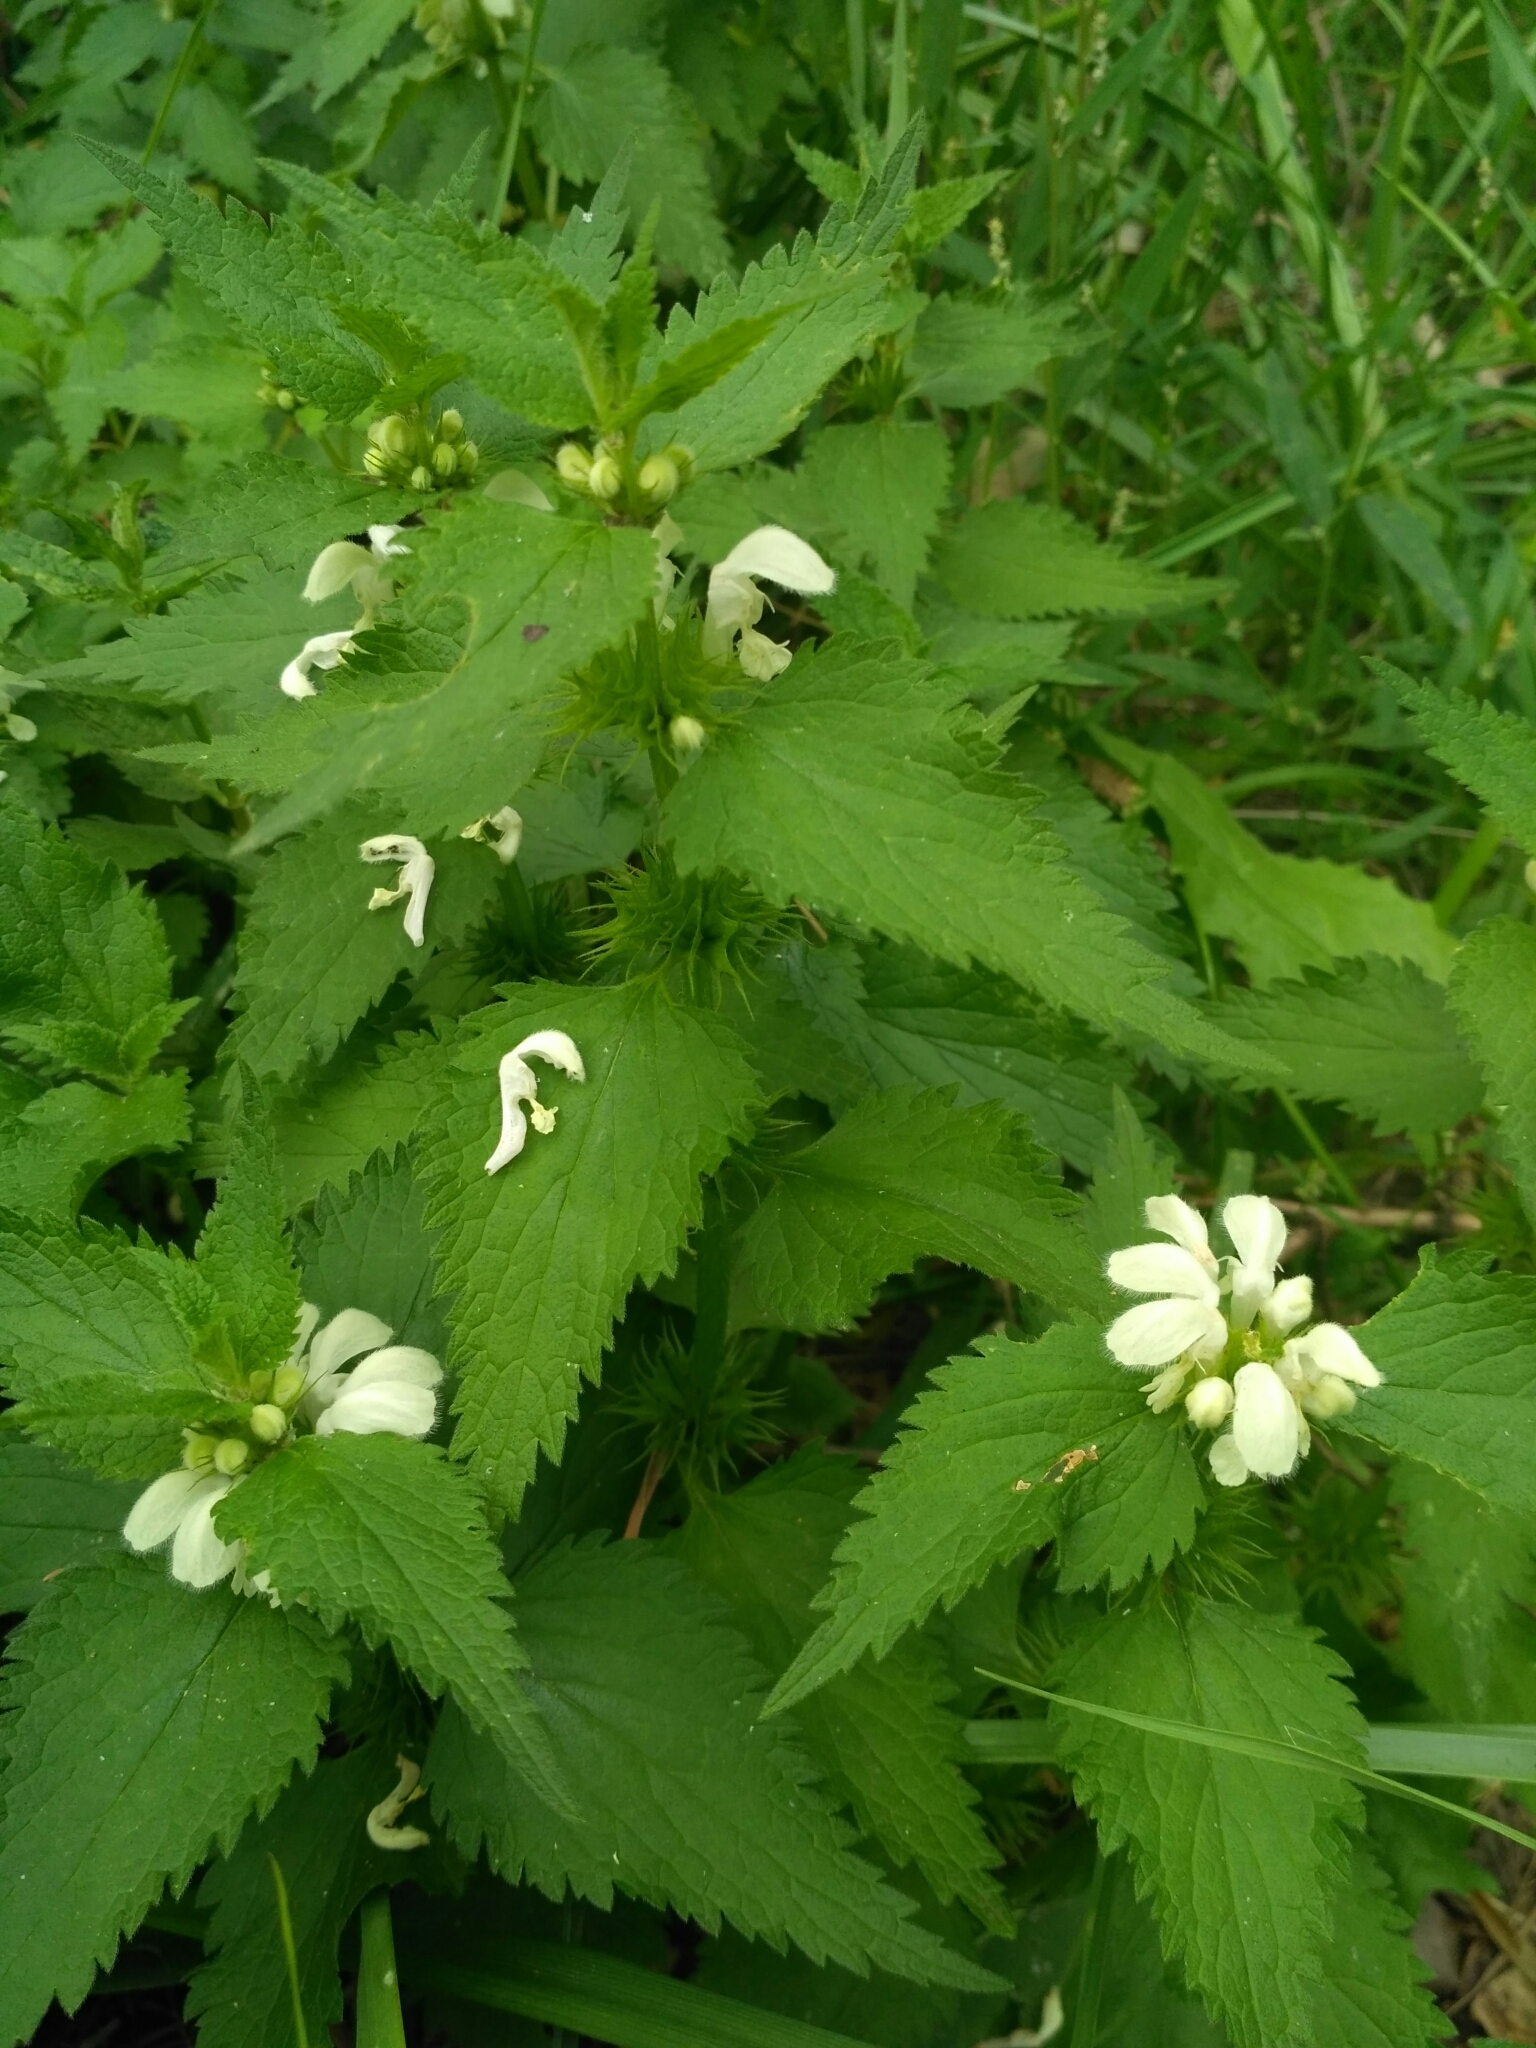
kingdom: Plantae
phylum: Tracheophyta
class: Magnoliopsida
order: Lamiales
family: Lamiaceae
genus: Lamium
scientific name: Lamium album
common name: White dead-nettle
